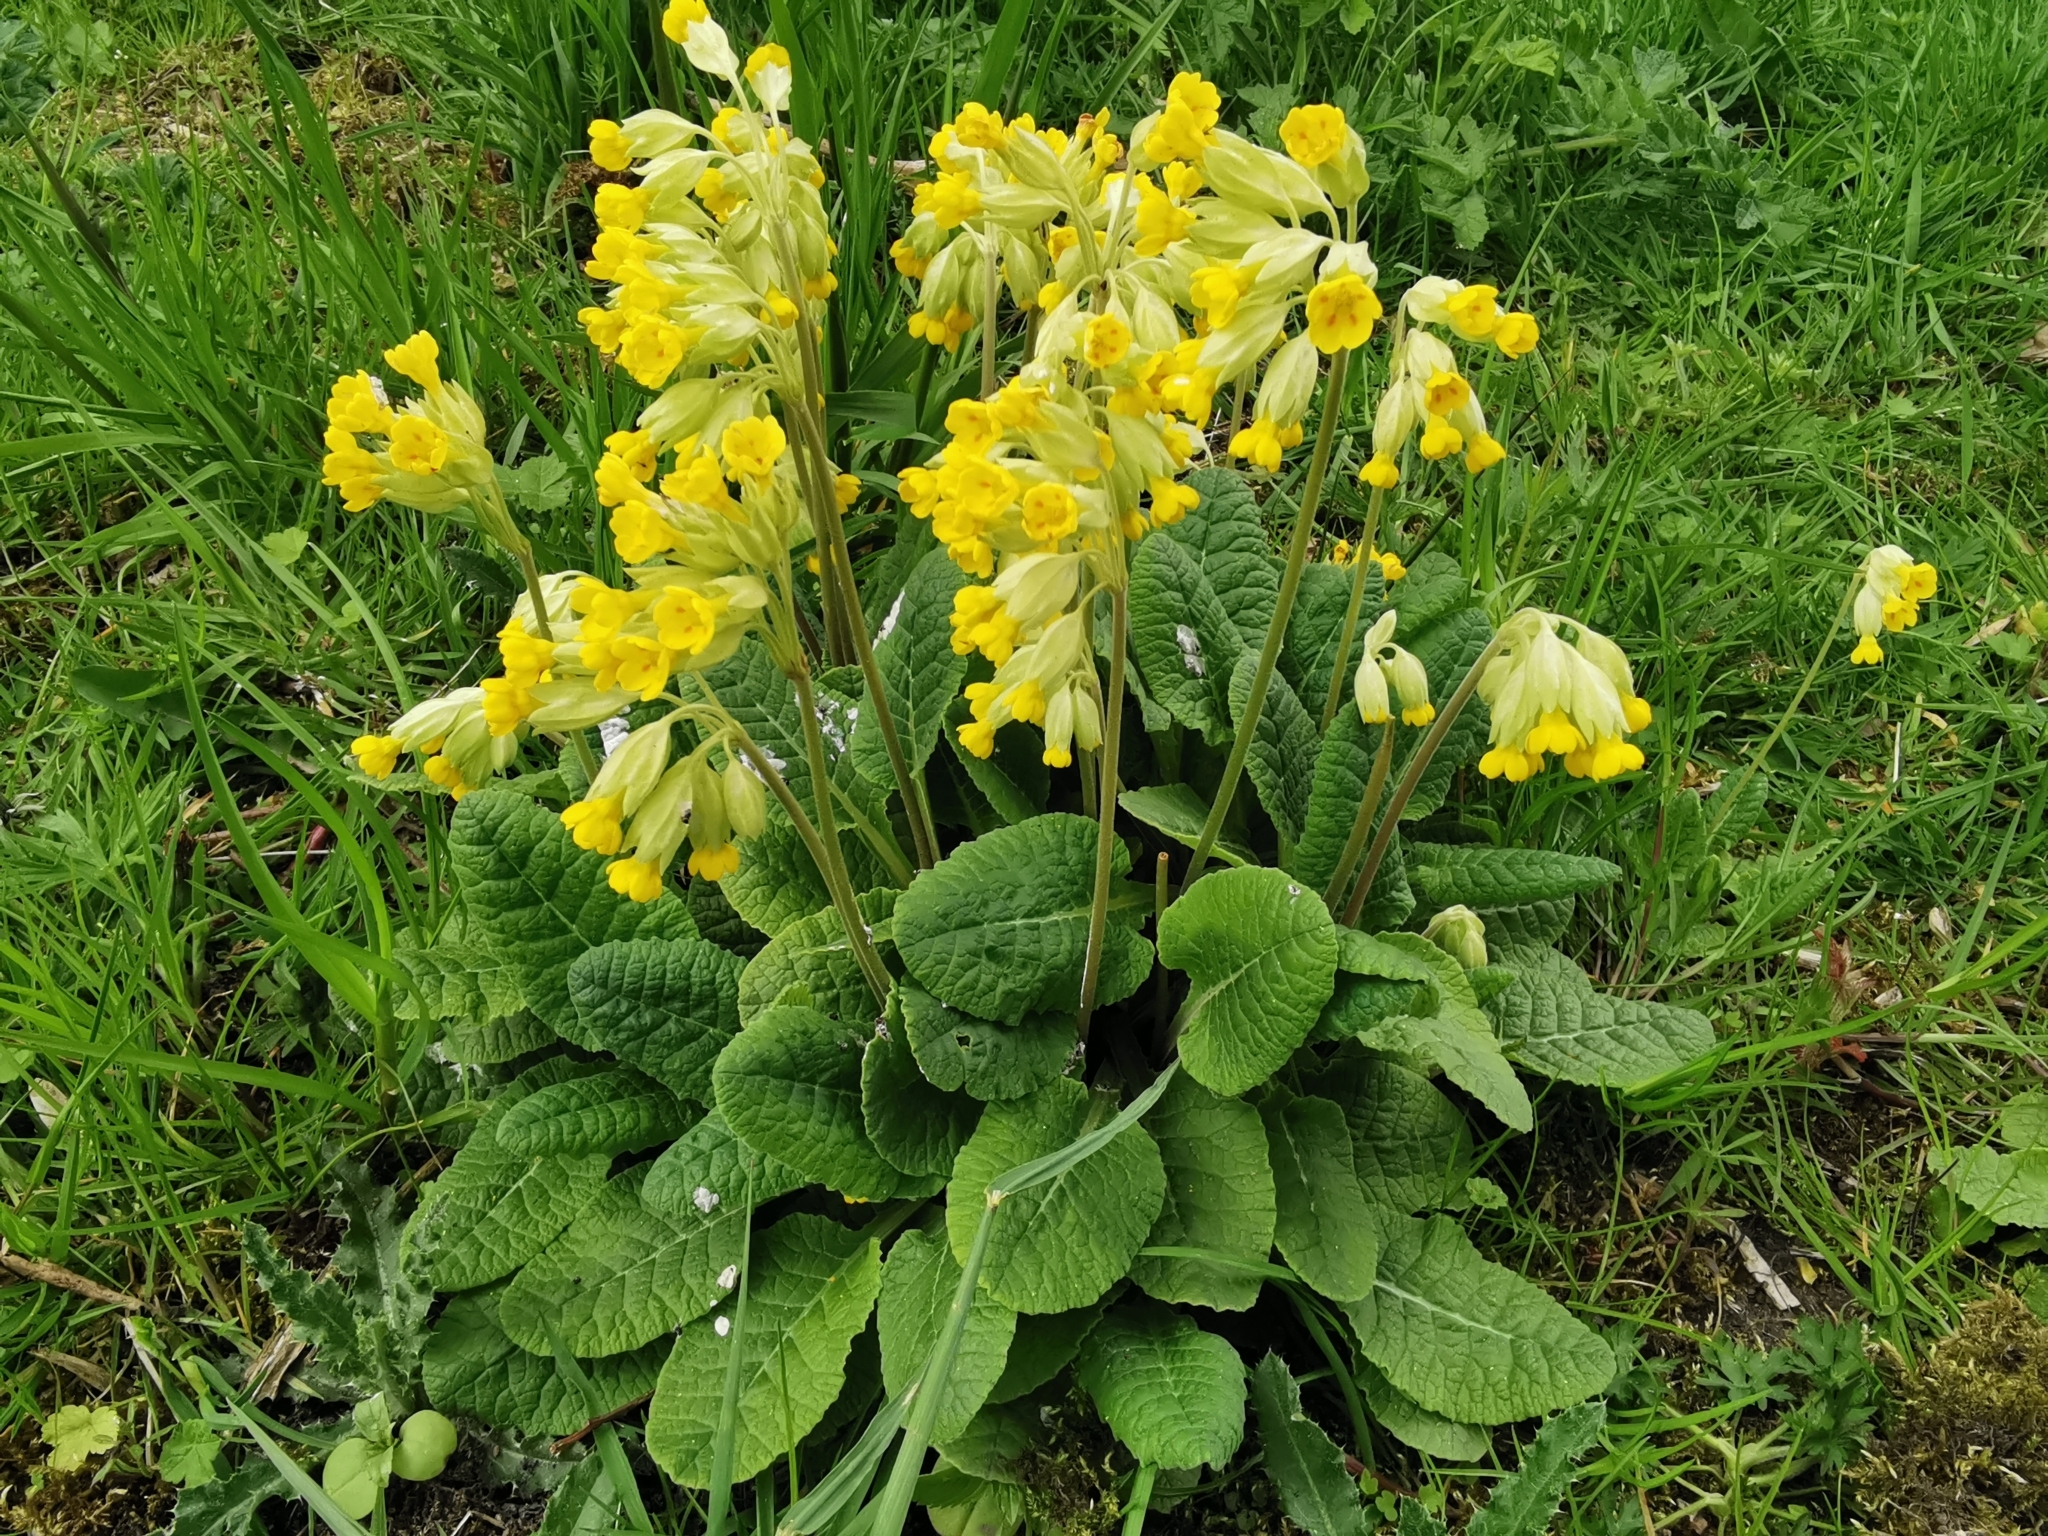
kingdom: Plantae
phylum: Tracheophyta
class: Magnoliopsida
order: Ericales
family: Primulaceae
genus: Primula
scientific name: Primula veris
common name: Cowslip
